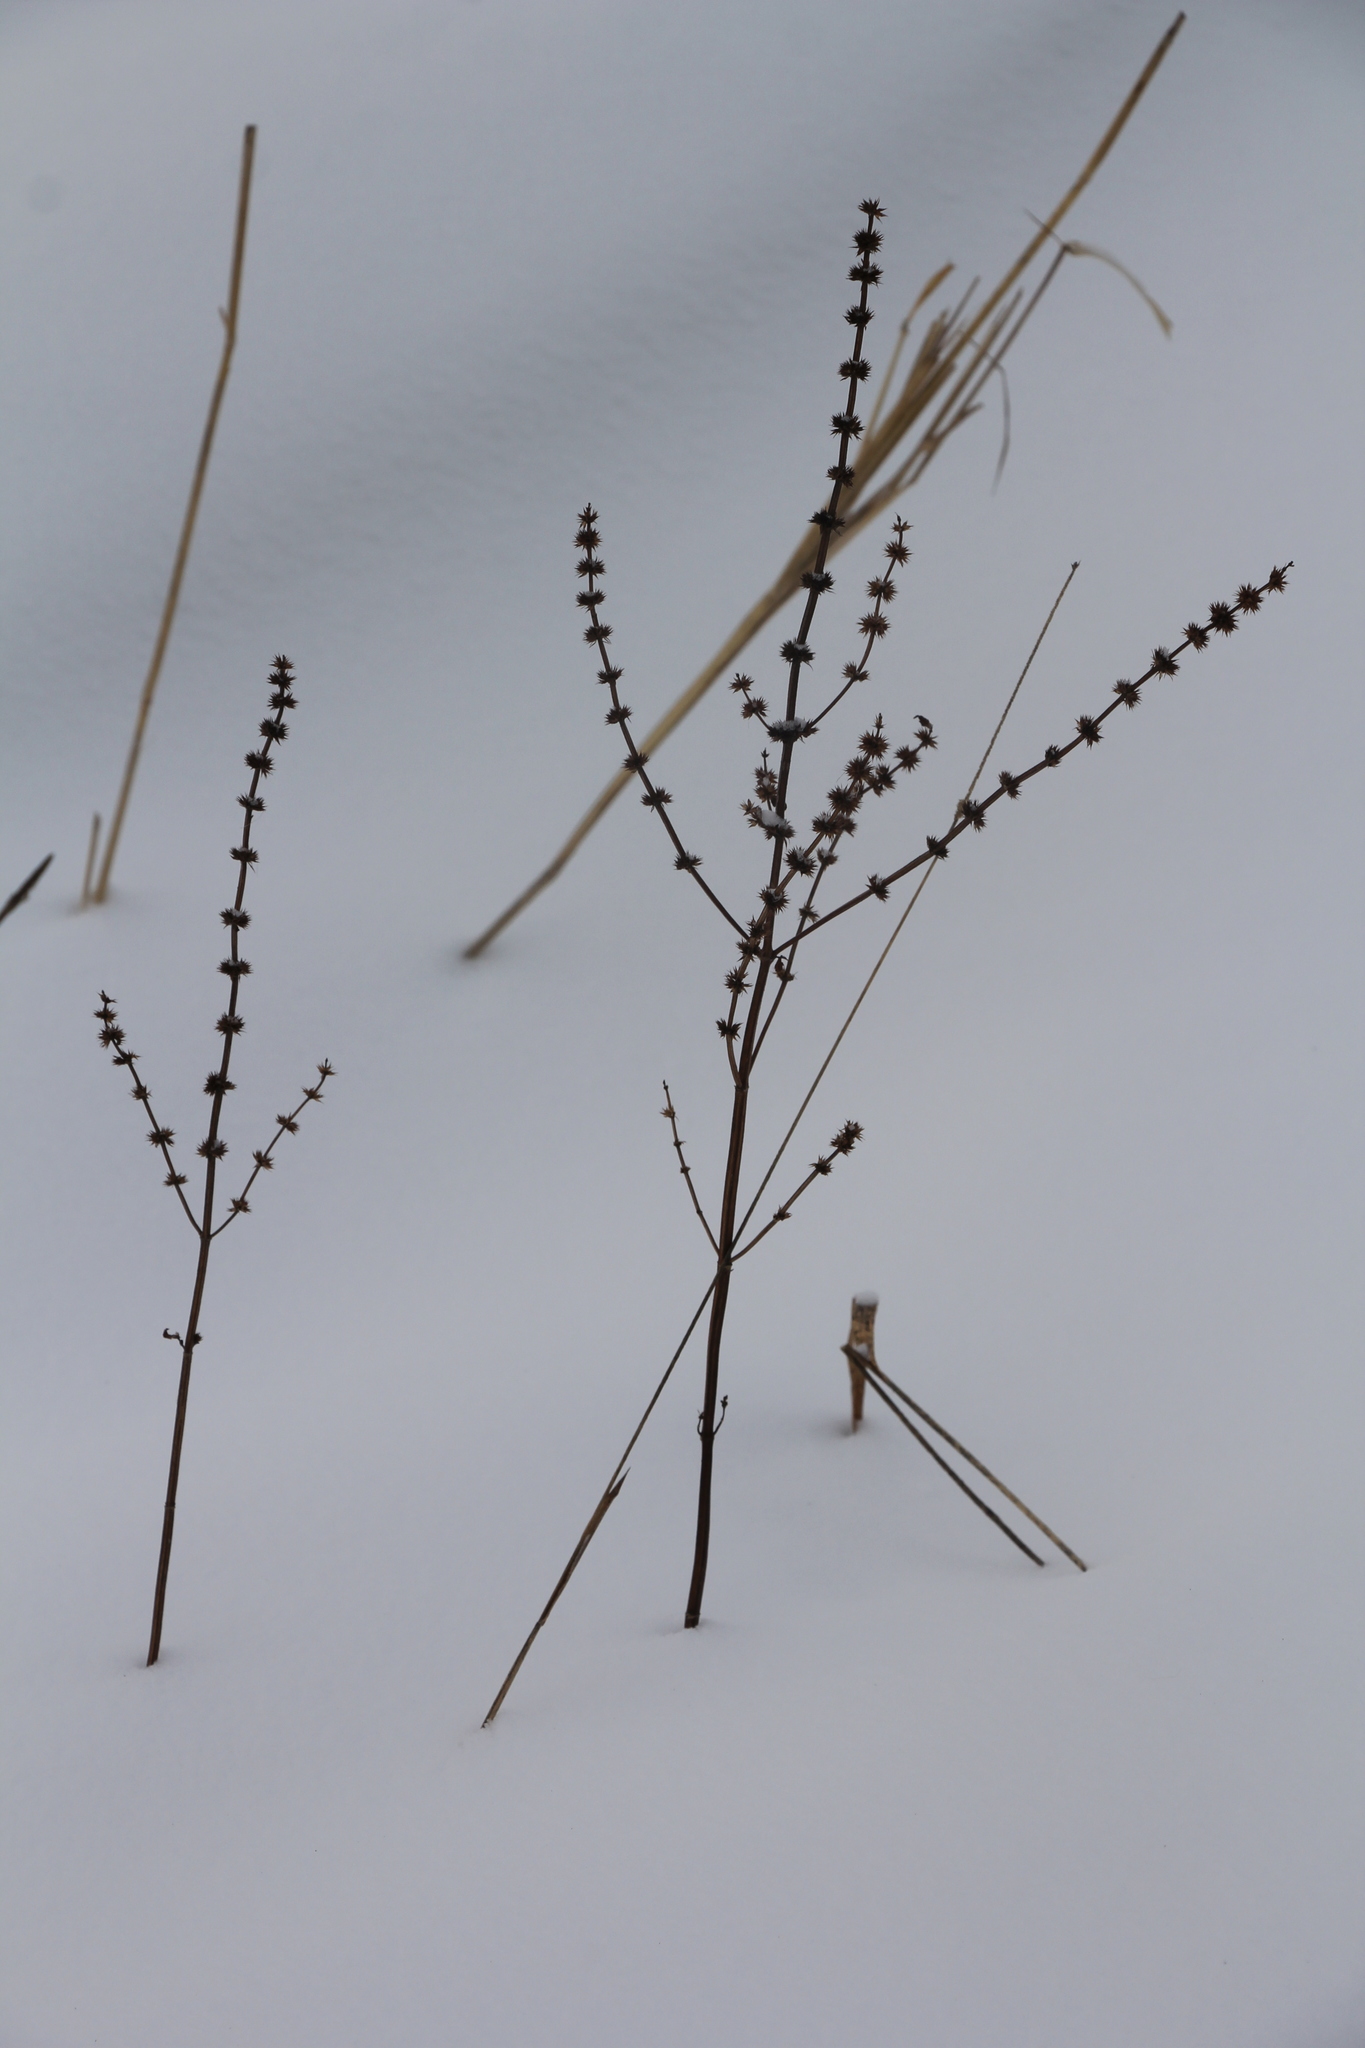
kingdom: Plantae
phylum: Tracheophyta
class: Magnoliopsida
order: Lamiales
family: Lamiaceae
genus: Leonurus
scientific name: Leonurus quinquelobatus
